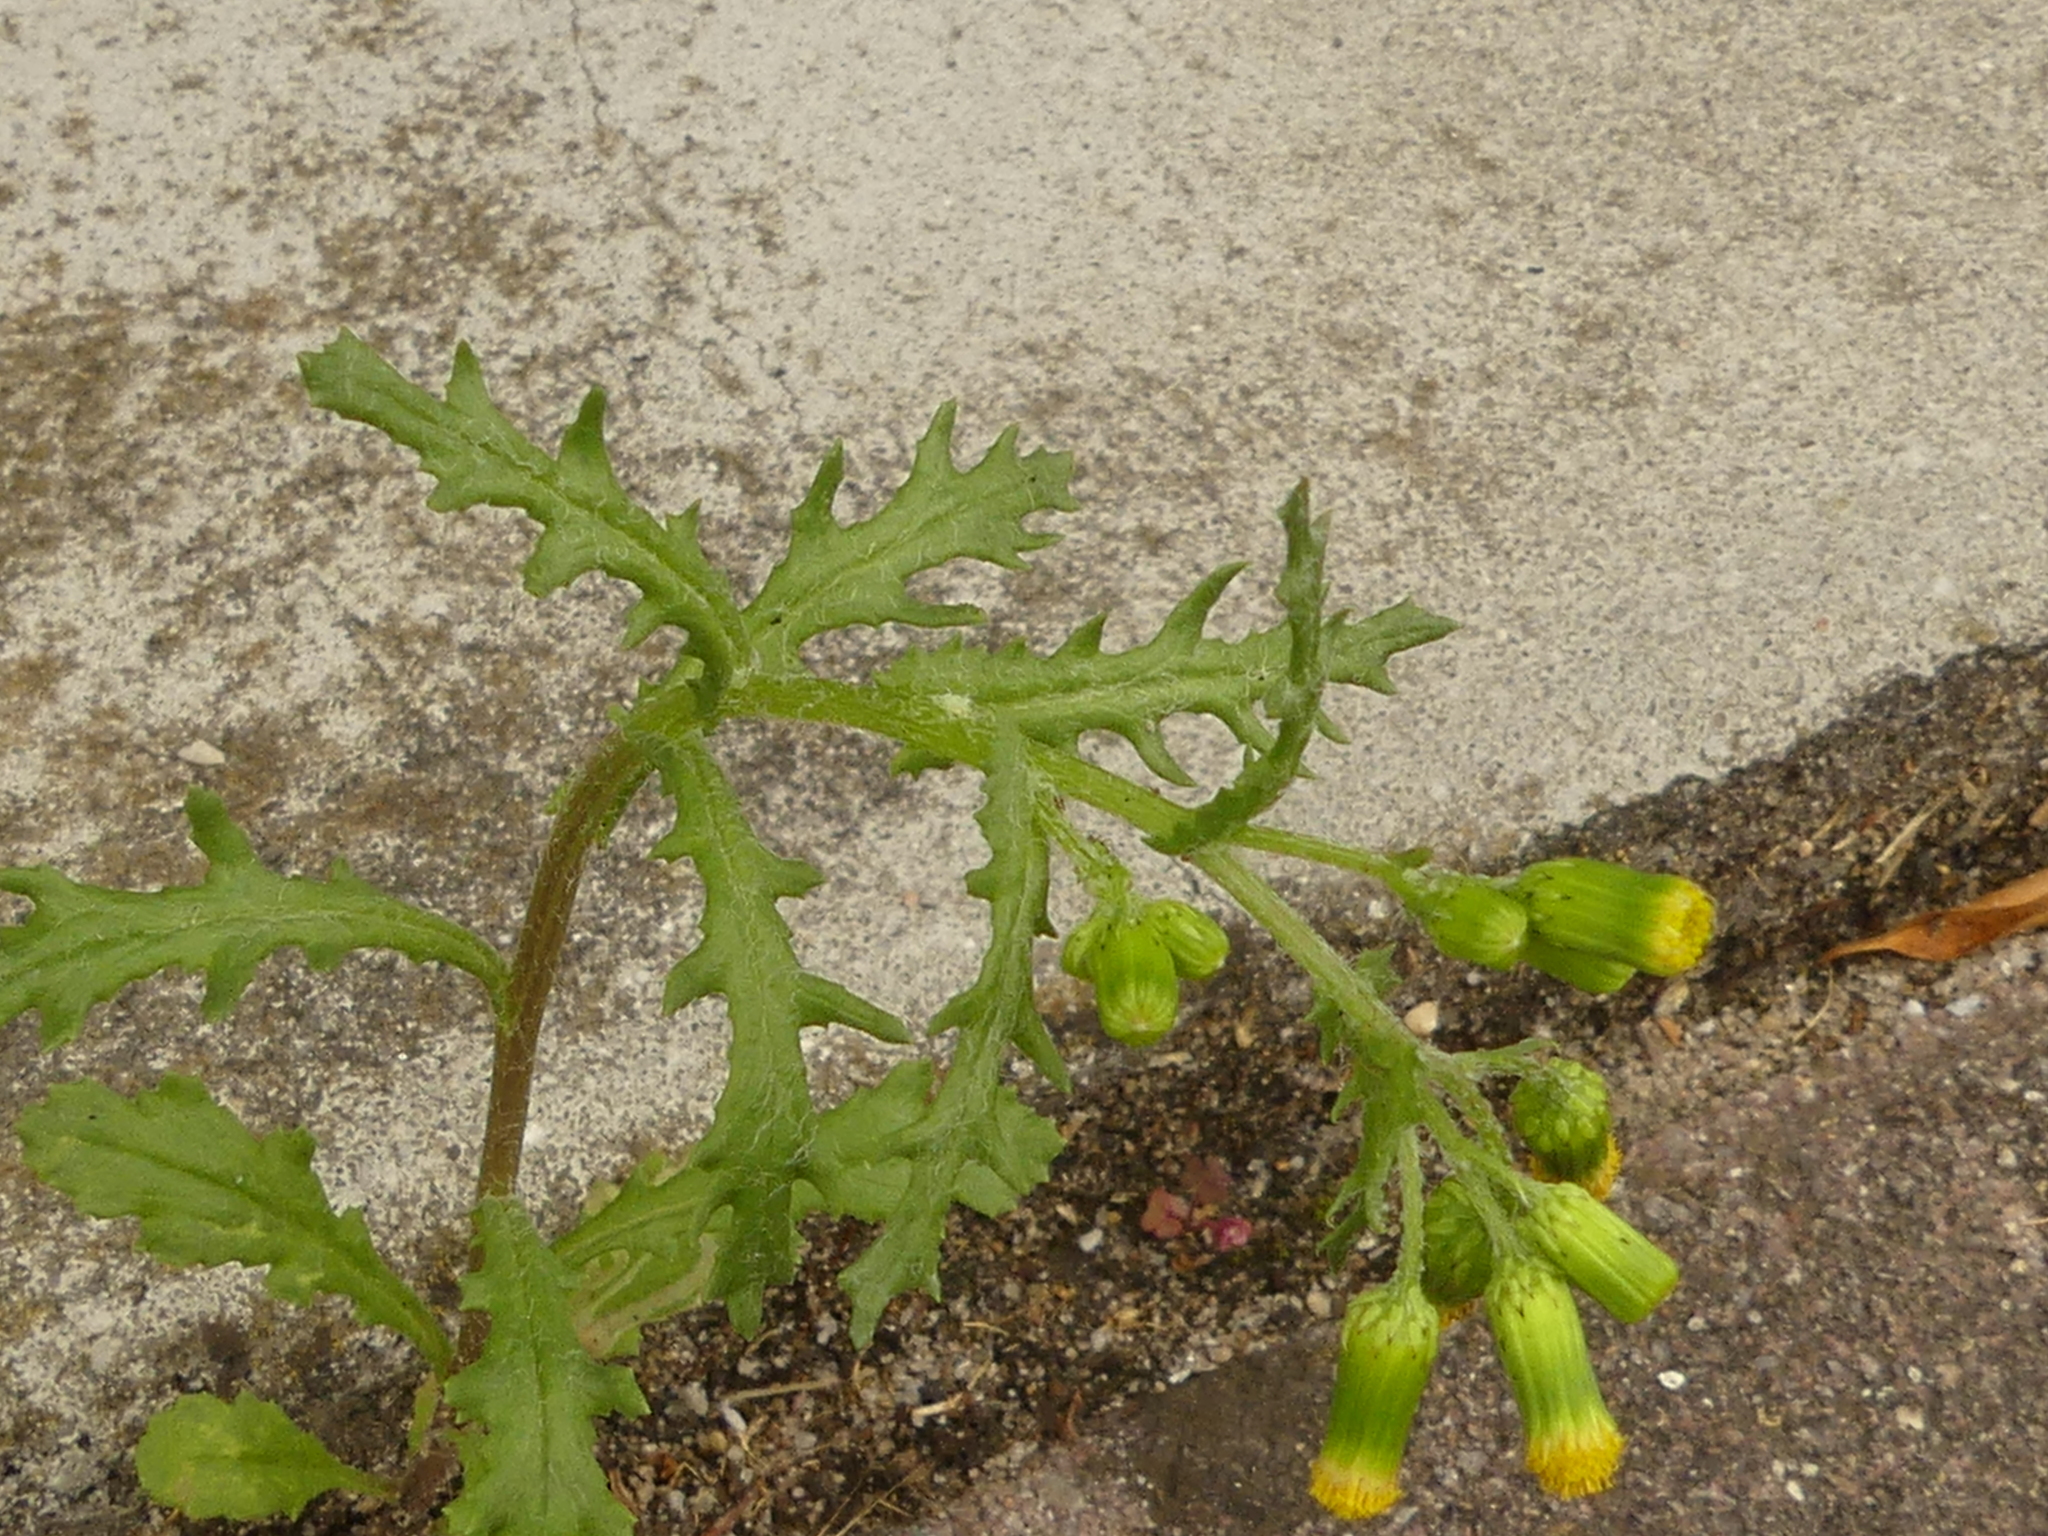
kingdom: Plantae
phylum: Tracheophyta
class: Magnoliopsida
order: Asterales
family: Asteraceae
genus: Senecio
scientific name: Senecio vulgaris
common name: Old-man-in-the-spring
